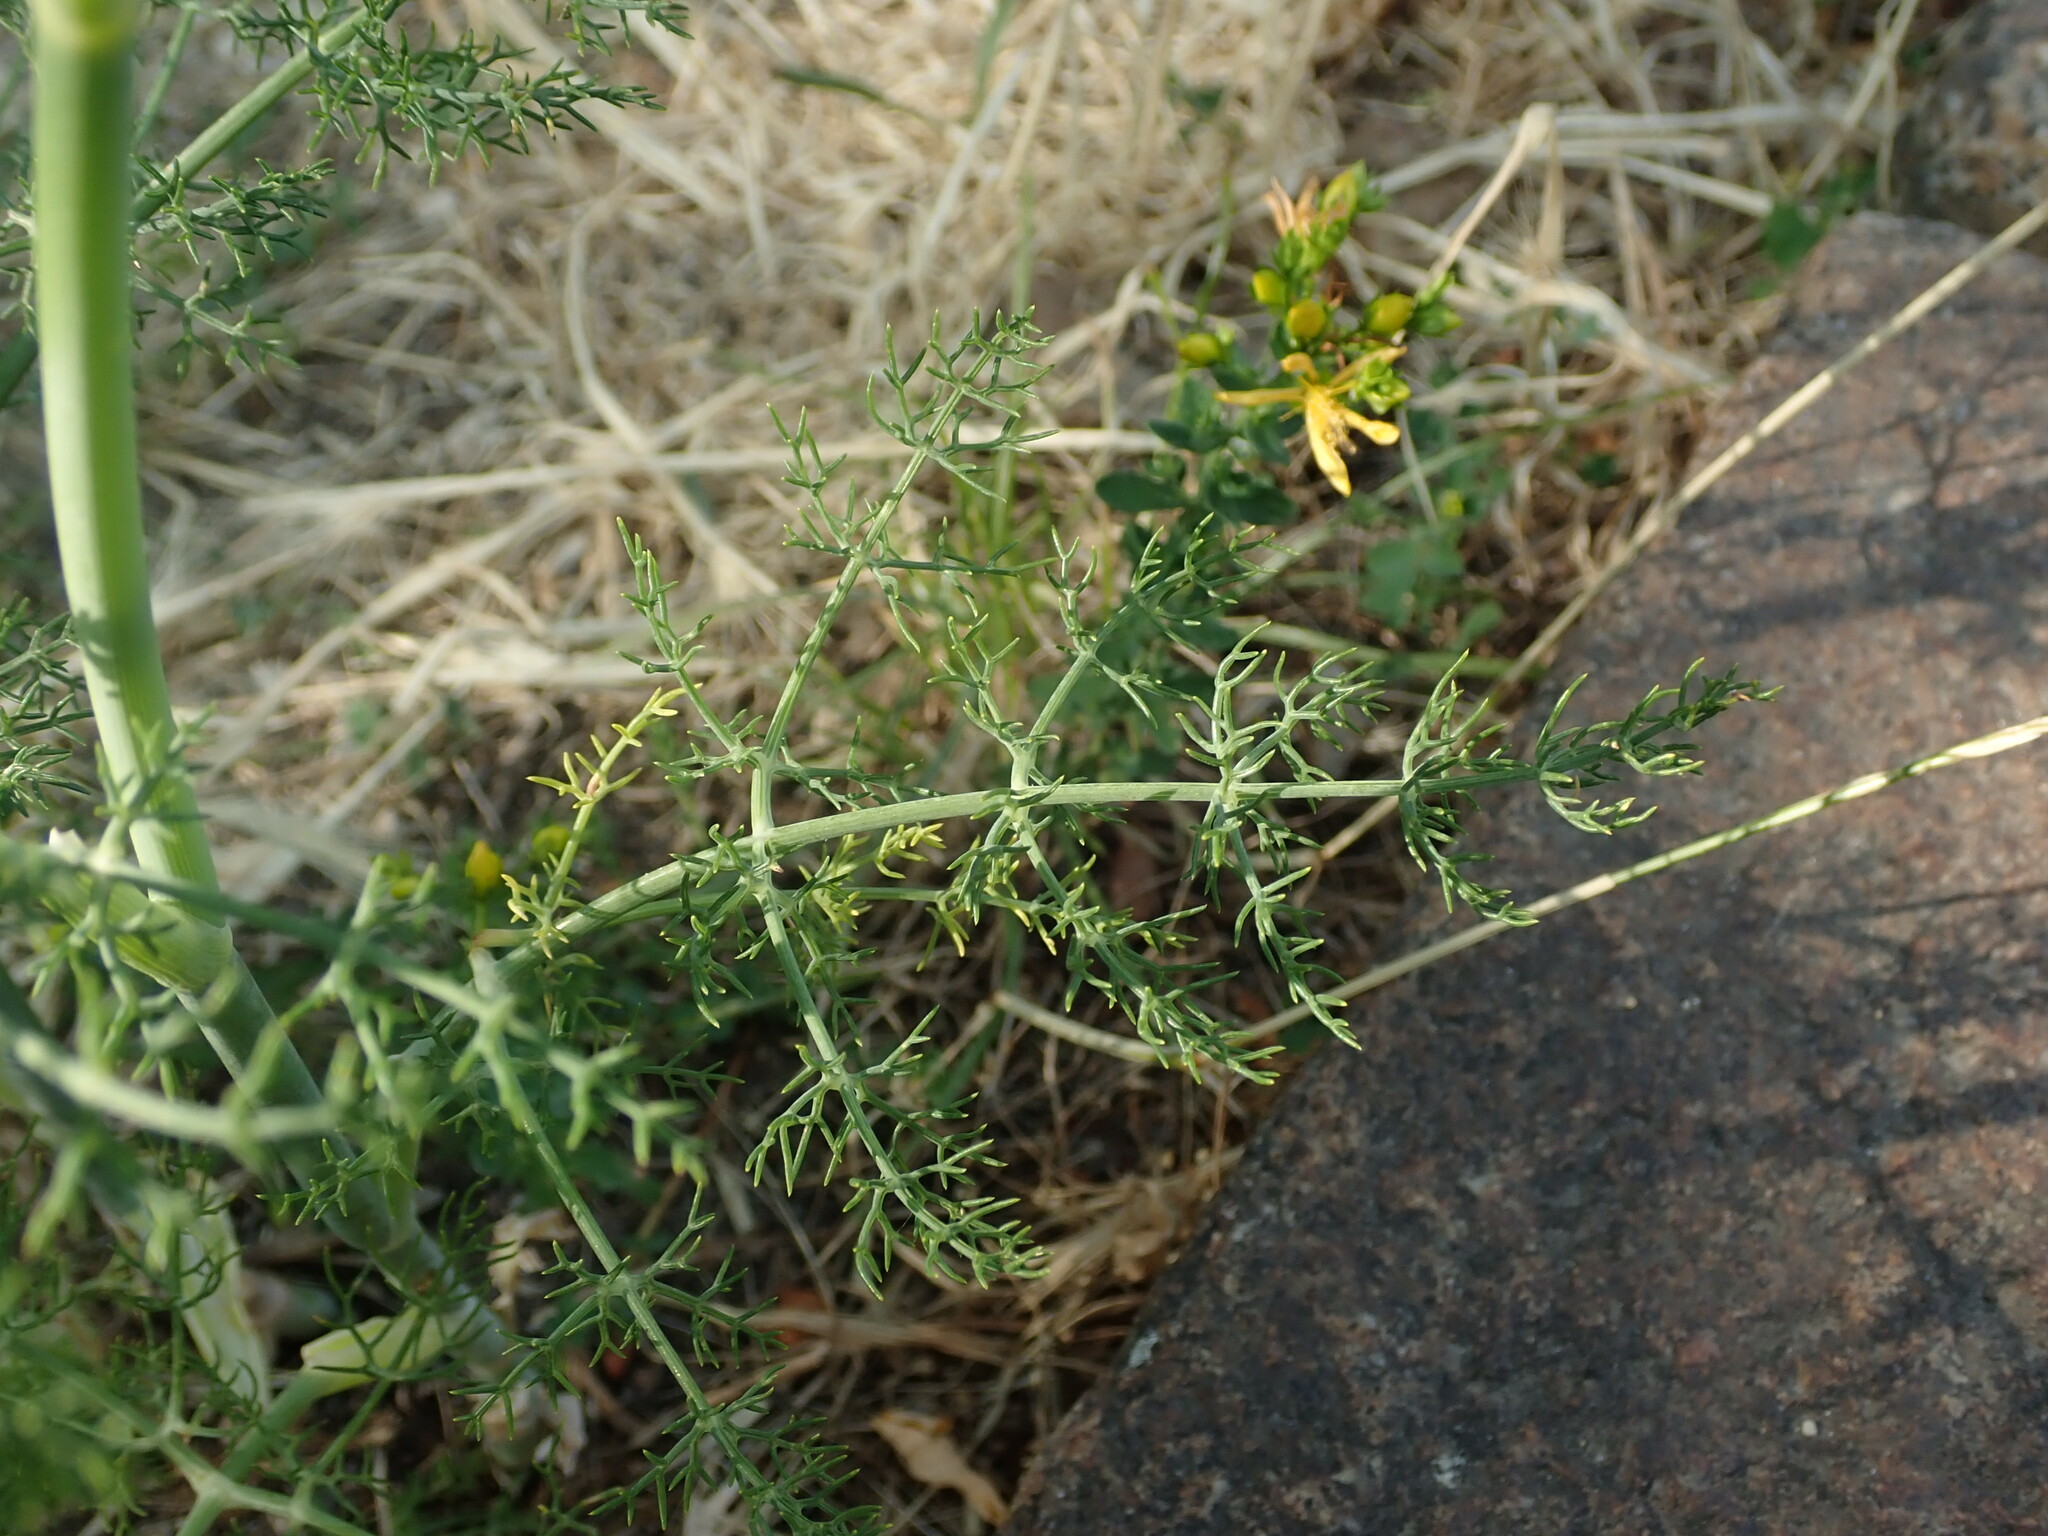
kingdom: Plantae
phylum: Tracheophyta
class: Magnoliopsida
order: Apiales
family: Apiaceae
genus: Foeniculum
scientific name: Foeniculum vulgare
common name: Fennel
